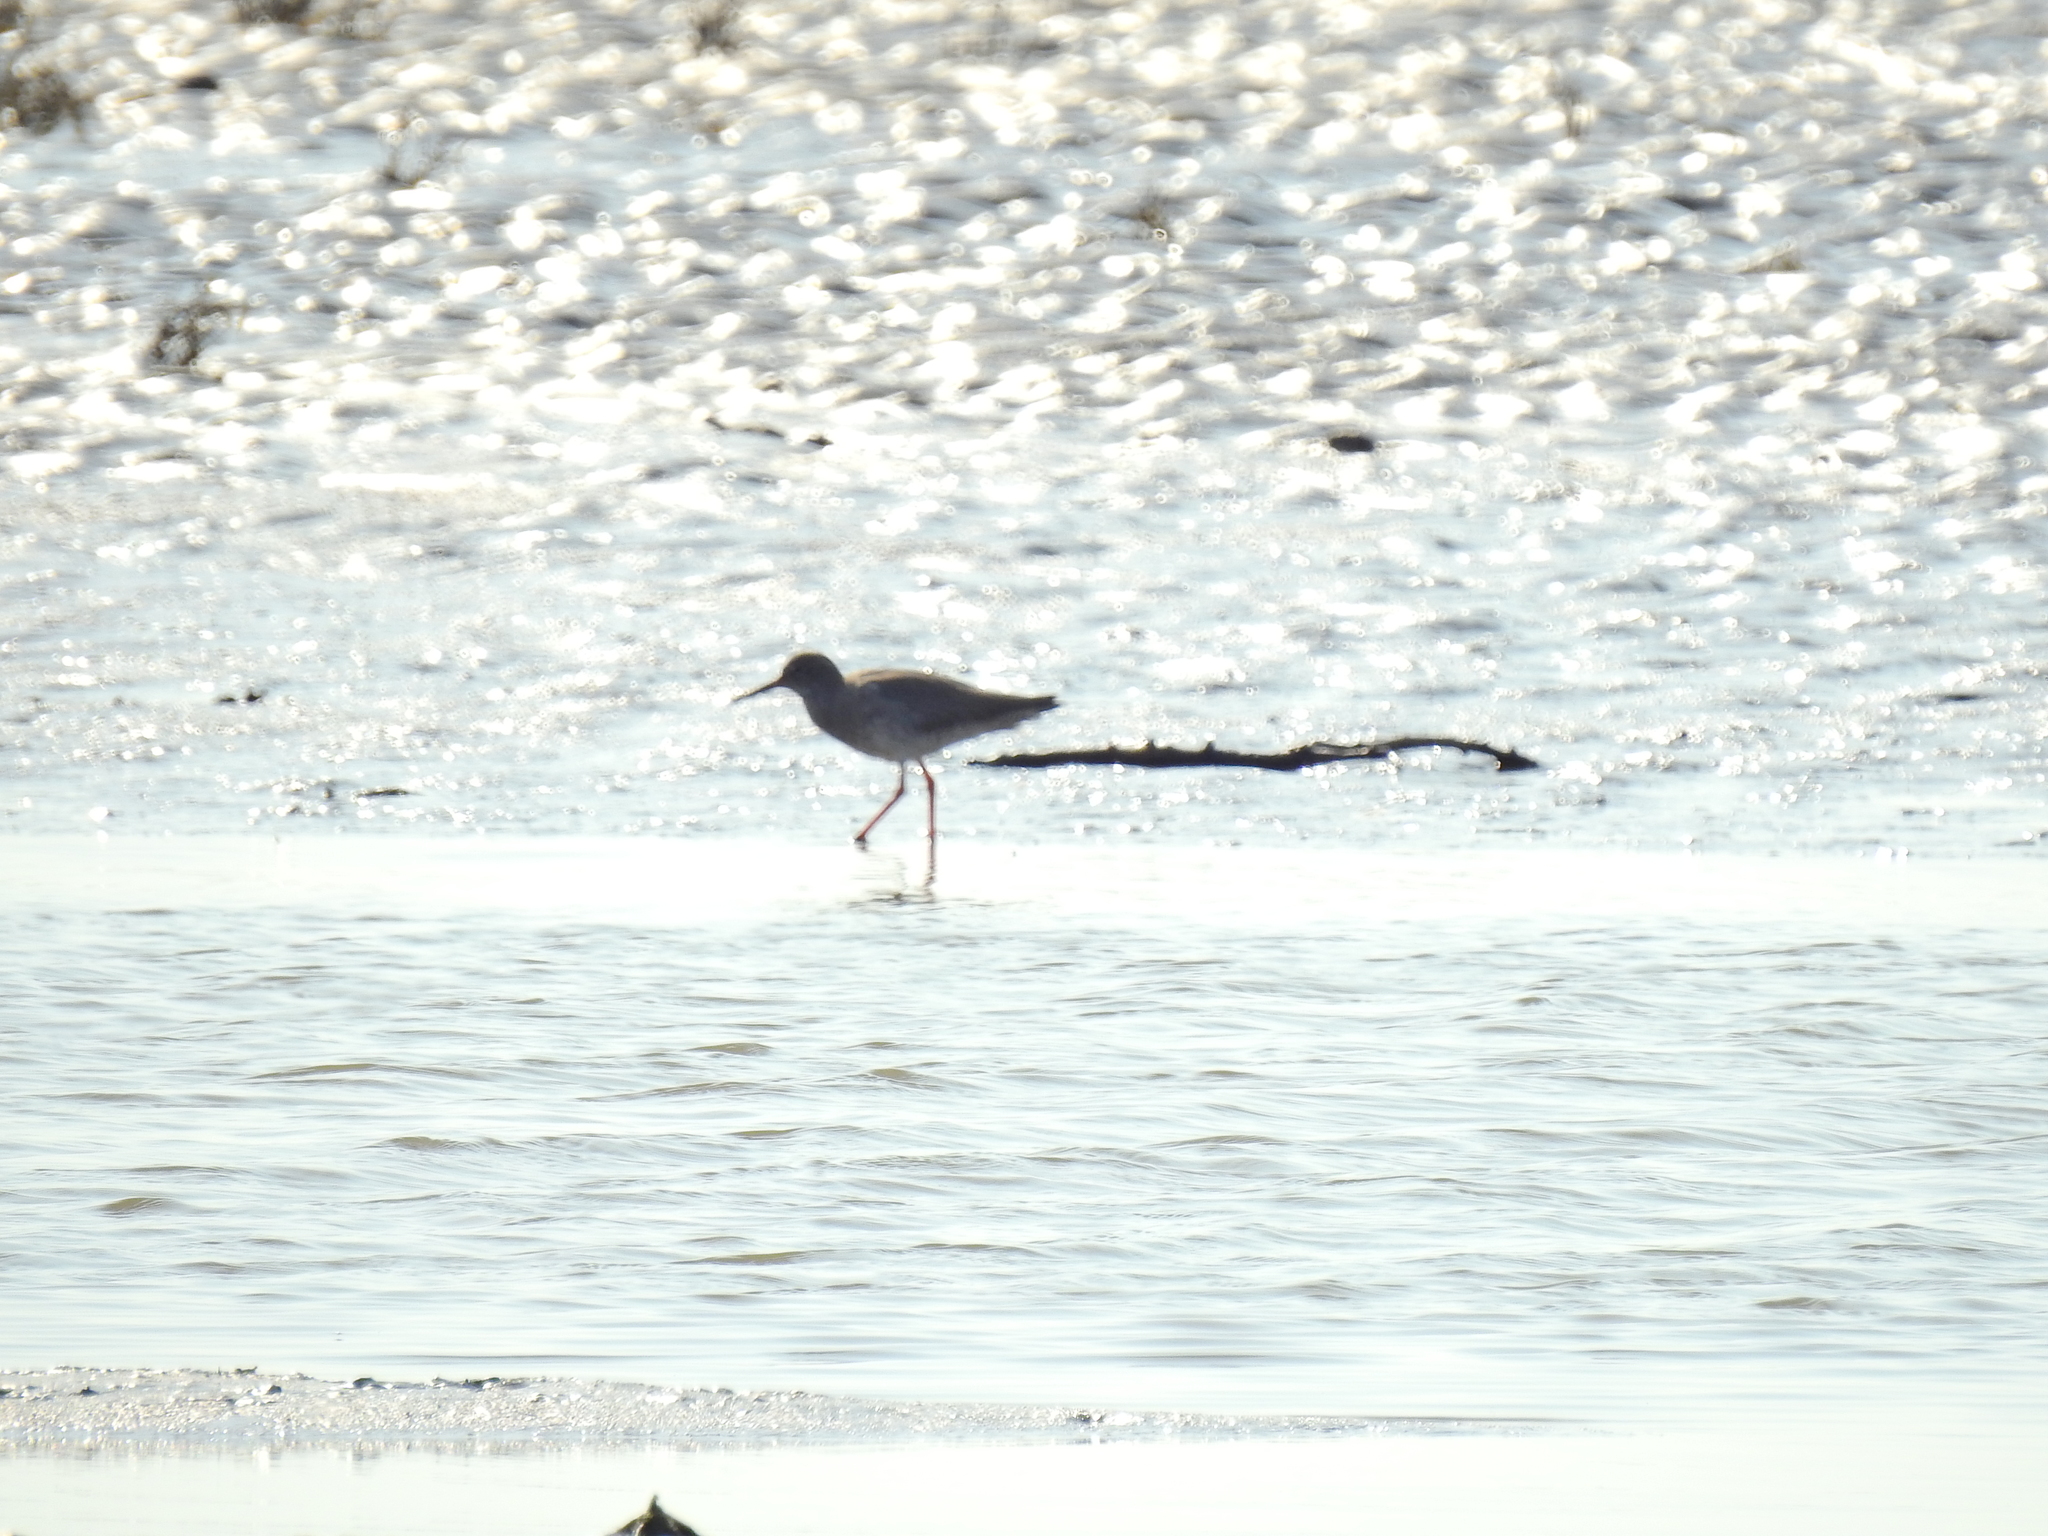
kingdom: Animalia
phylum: Chordata
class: Aves
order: Charadriiformes
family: Scolopacidae
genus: Tringa
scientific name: Tringa totanus
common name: Common redshank
